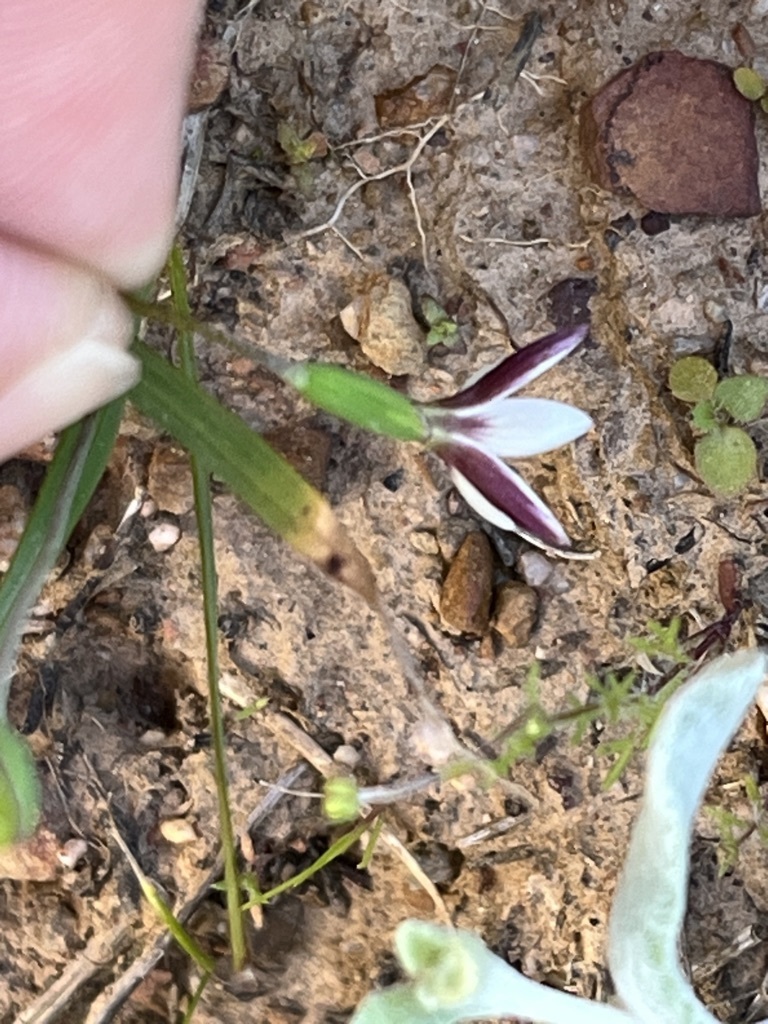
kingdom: Plantae
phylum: Tracheophyta
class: Liliopsida
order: Asparagales
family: Iridaceae
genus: Hesperantha
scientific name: Hesperantha falcata
